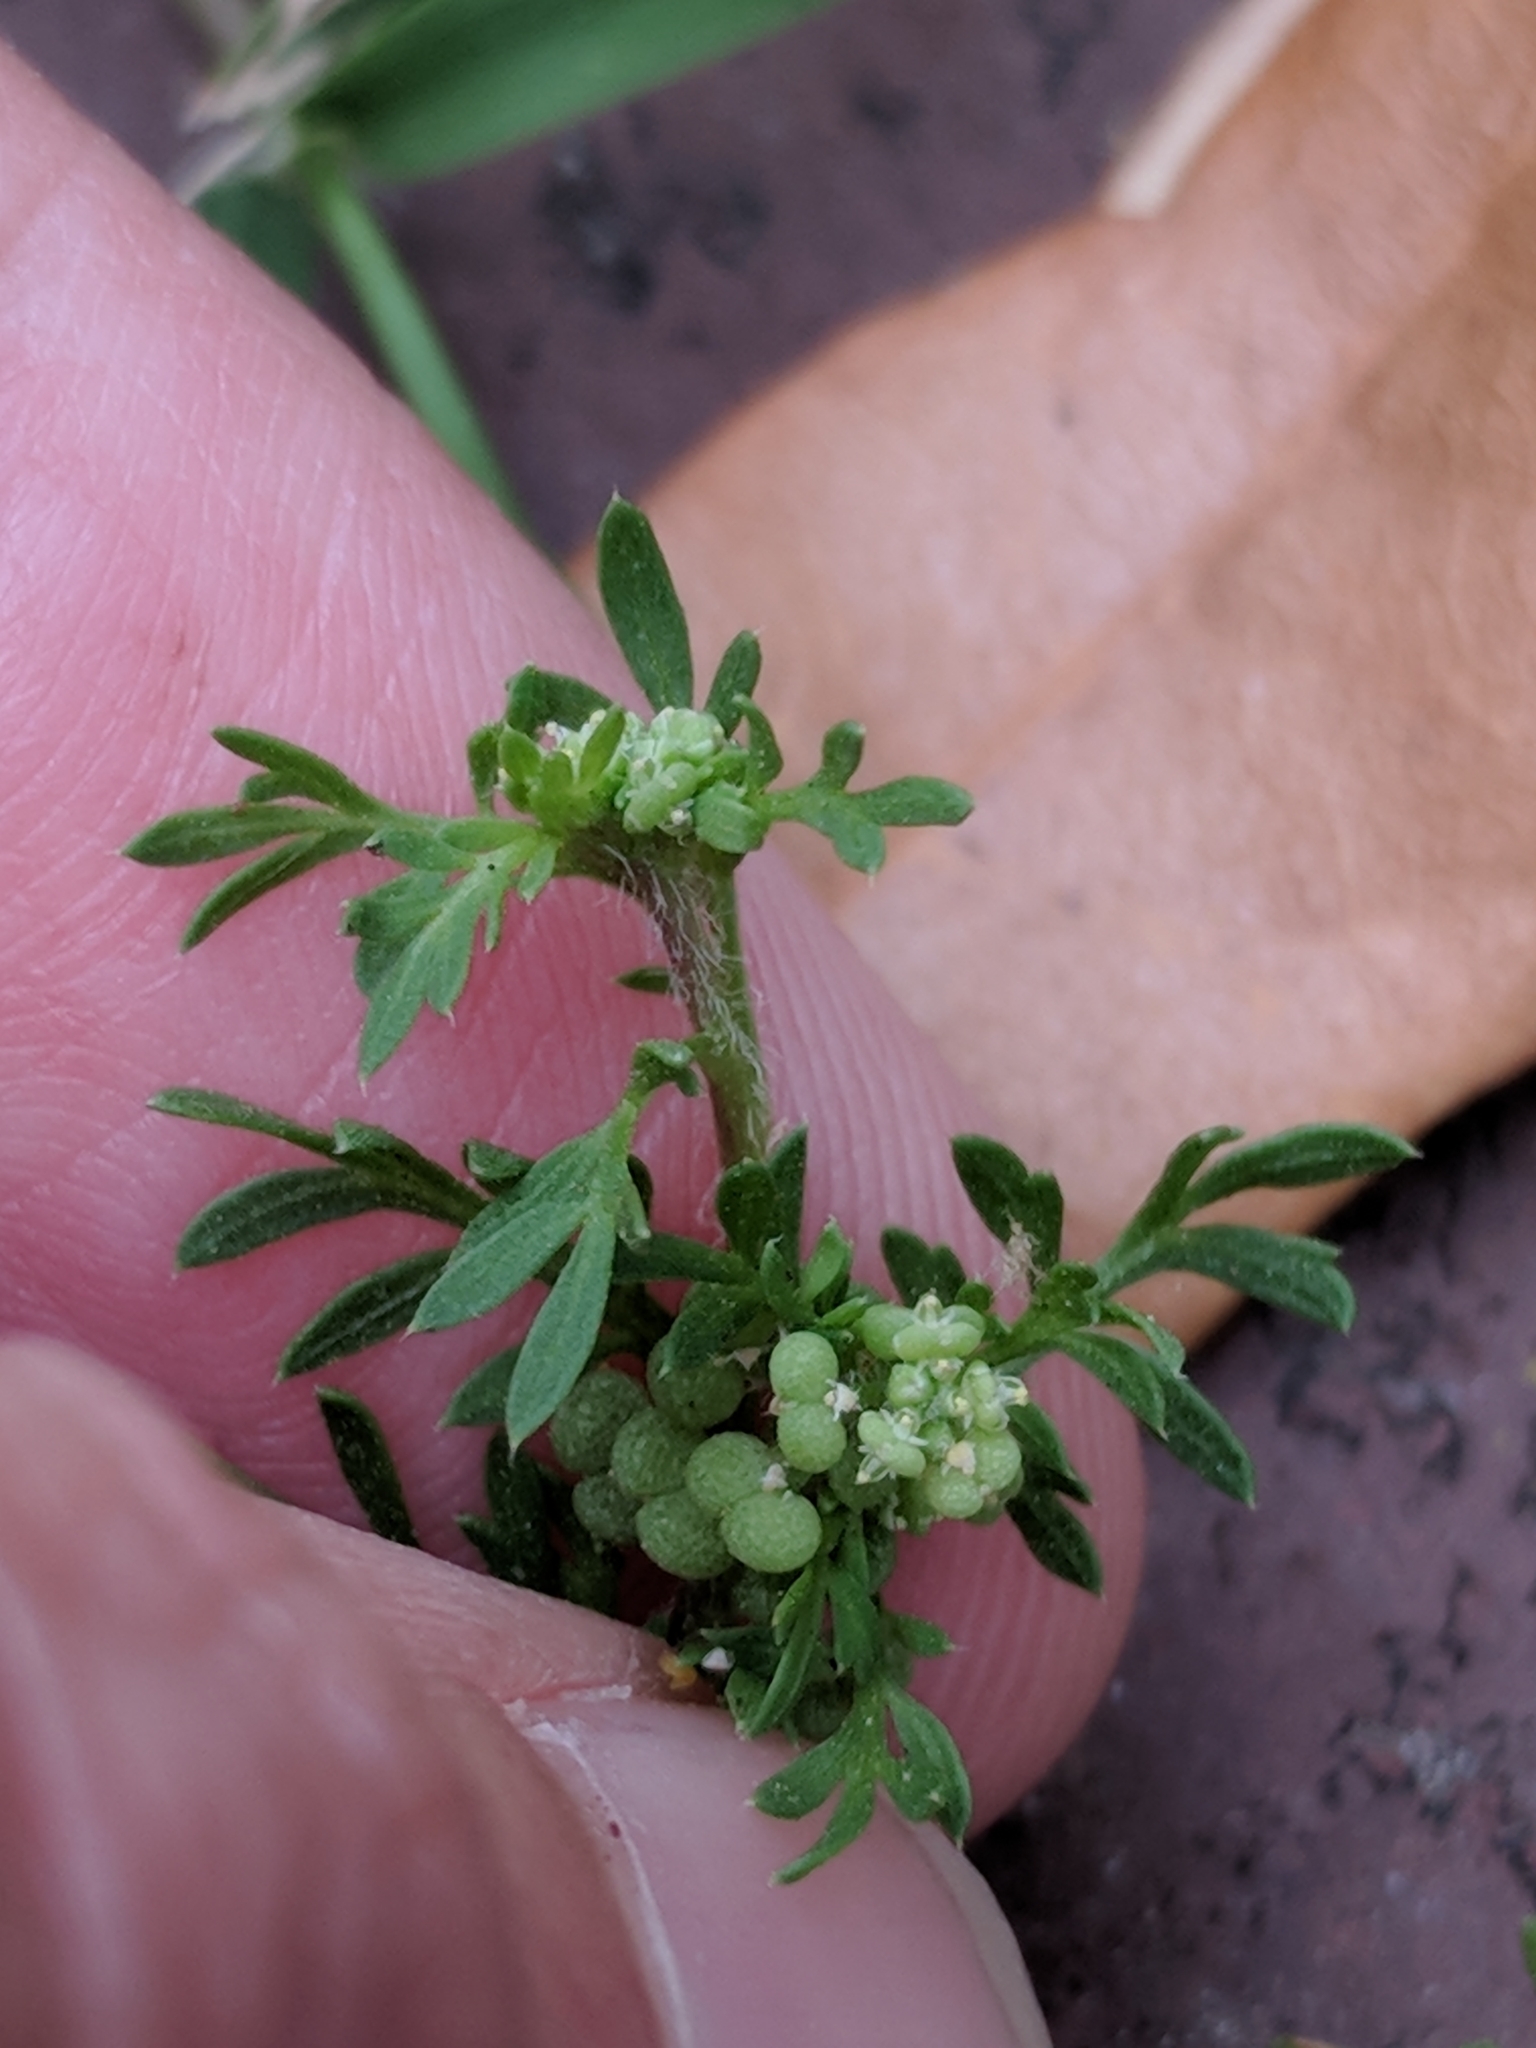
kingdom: Plantae
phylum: Tracheophyta
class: Magnoliopsida
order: Brassicales
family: Brassicaceae
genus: Lepidium
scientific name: Lepidium didymum
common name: Lesser swinecress
